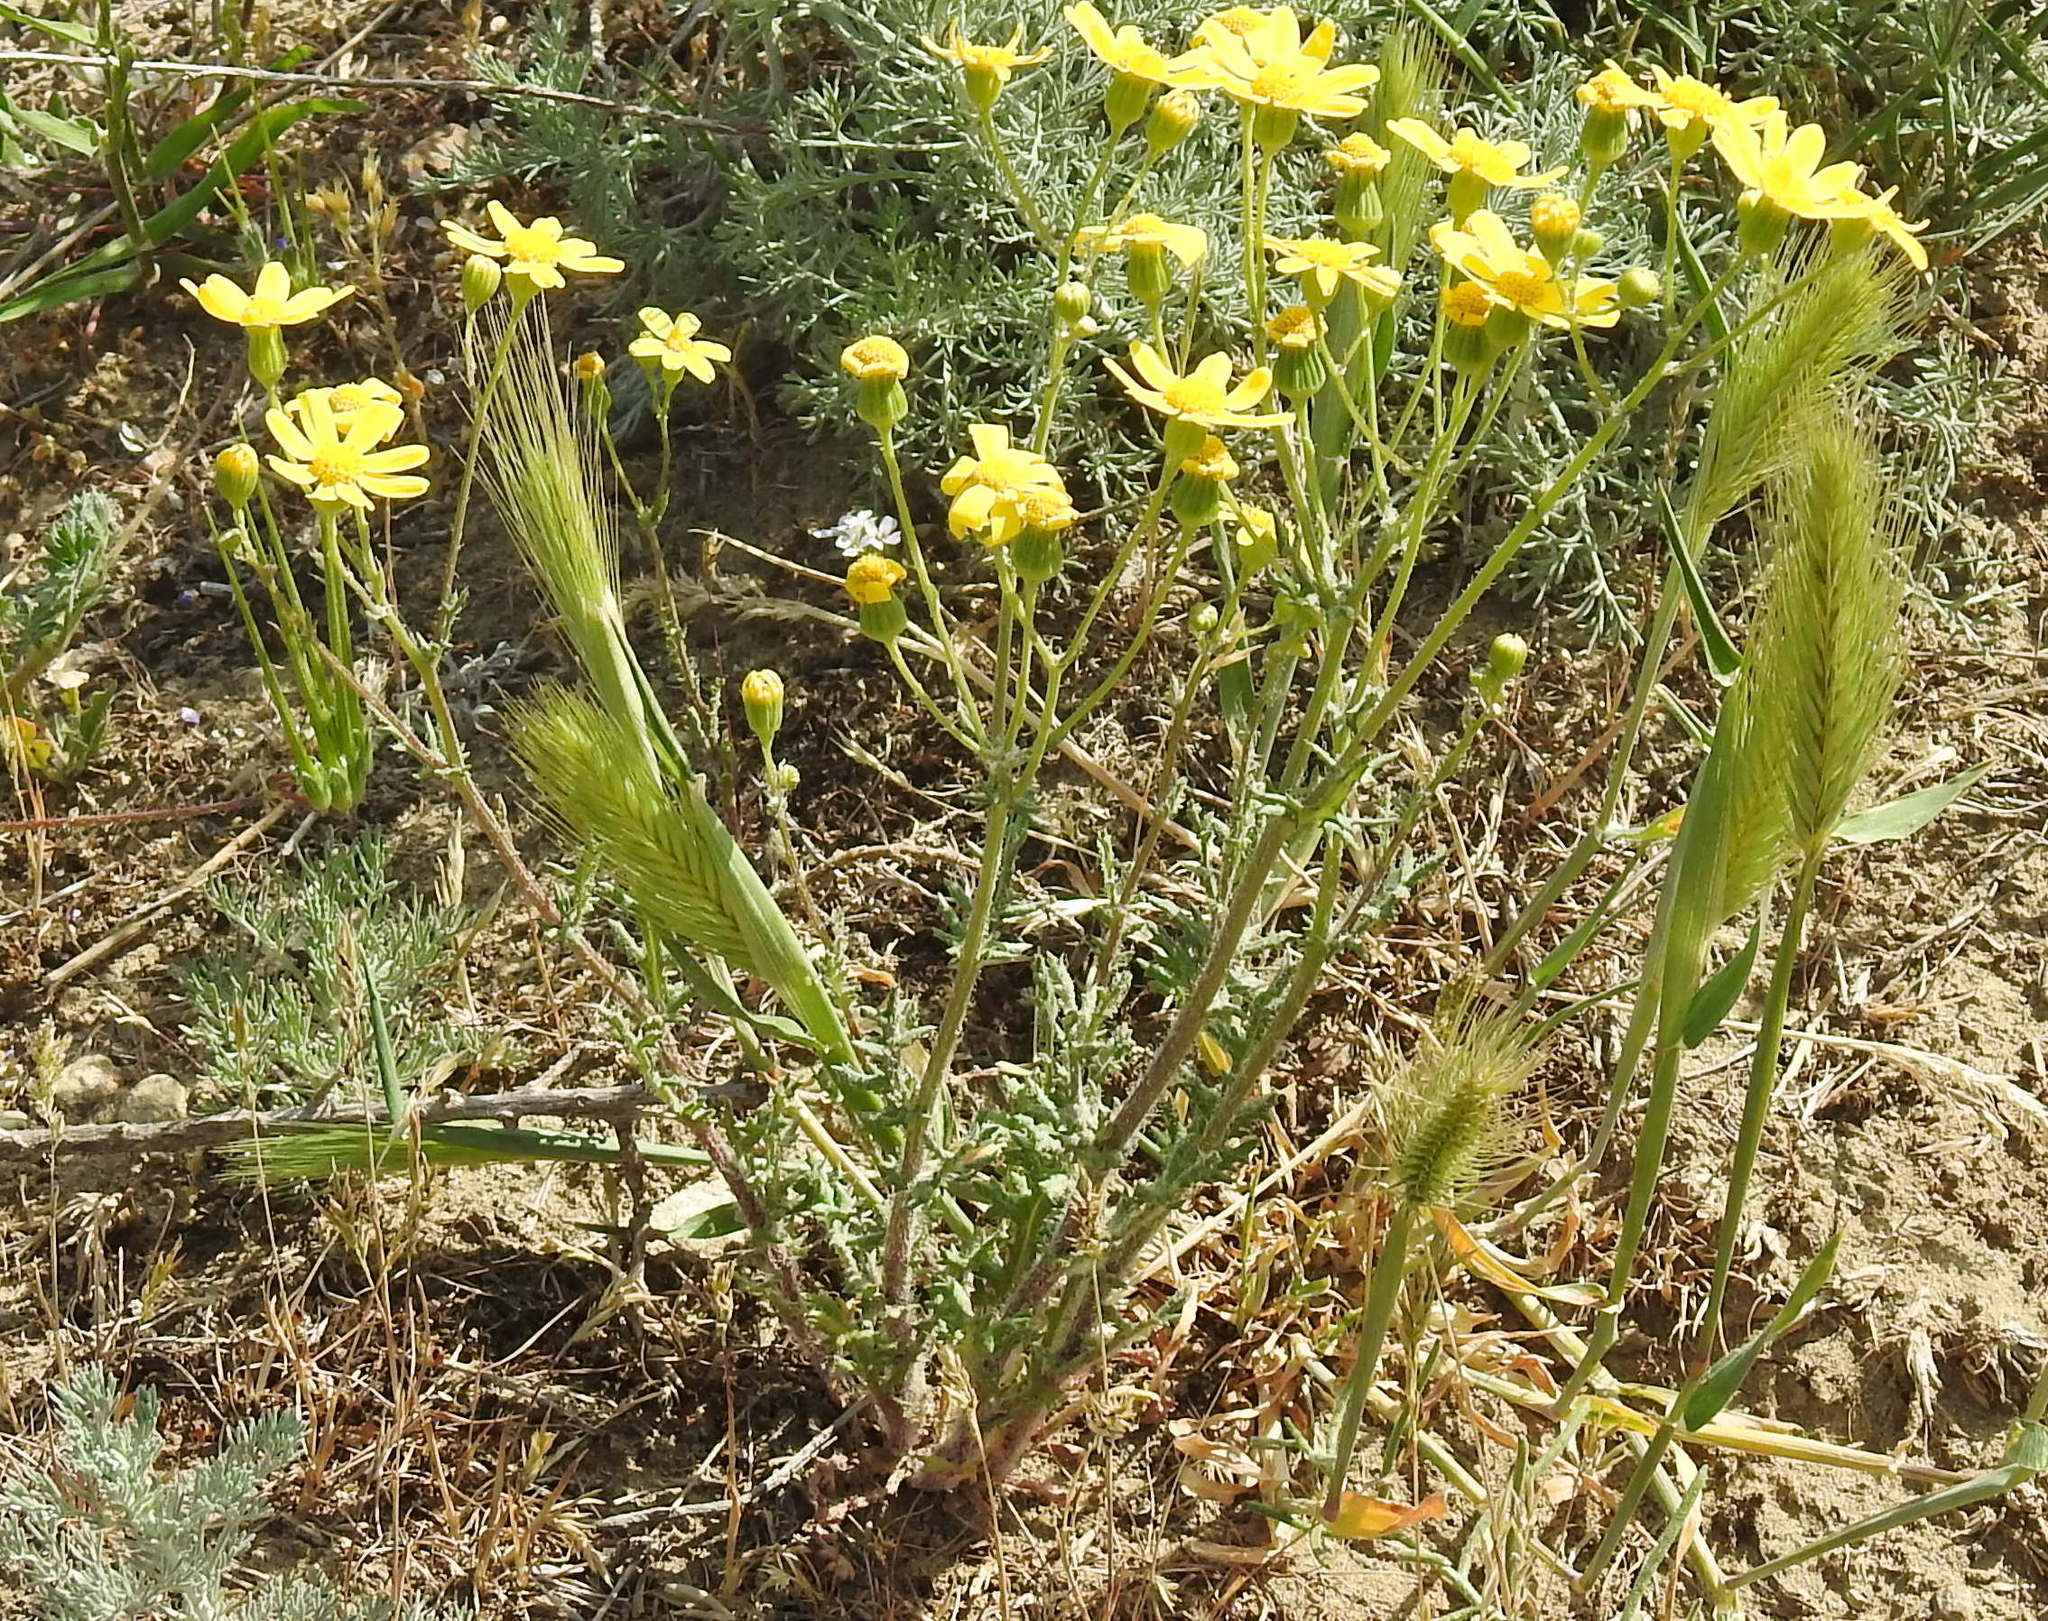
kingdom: Plantae
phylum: Tracheophyta
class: Magnoliopsida
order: Asterales
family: Asteraceae
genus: Senecio
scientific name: Senecio vernalis
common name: Eastern groundsel
